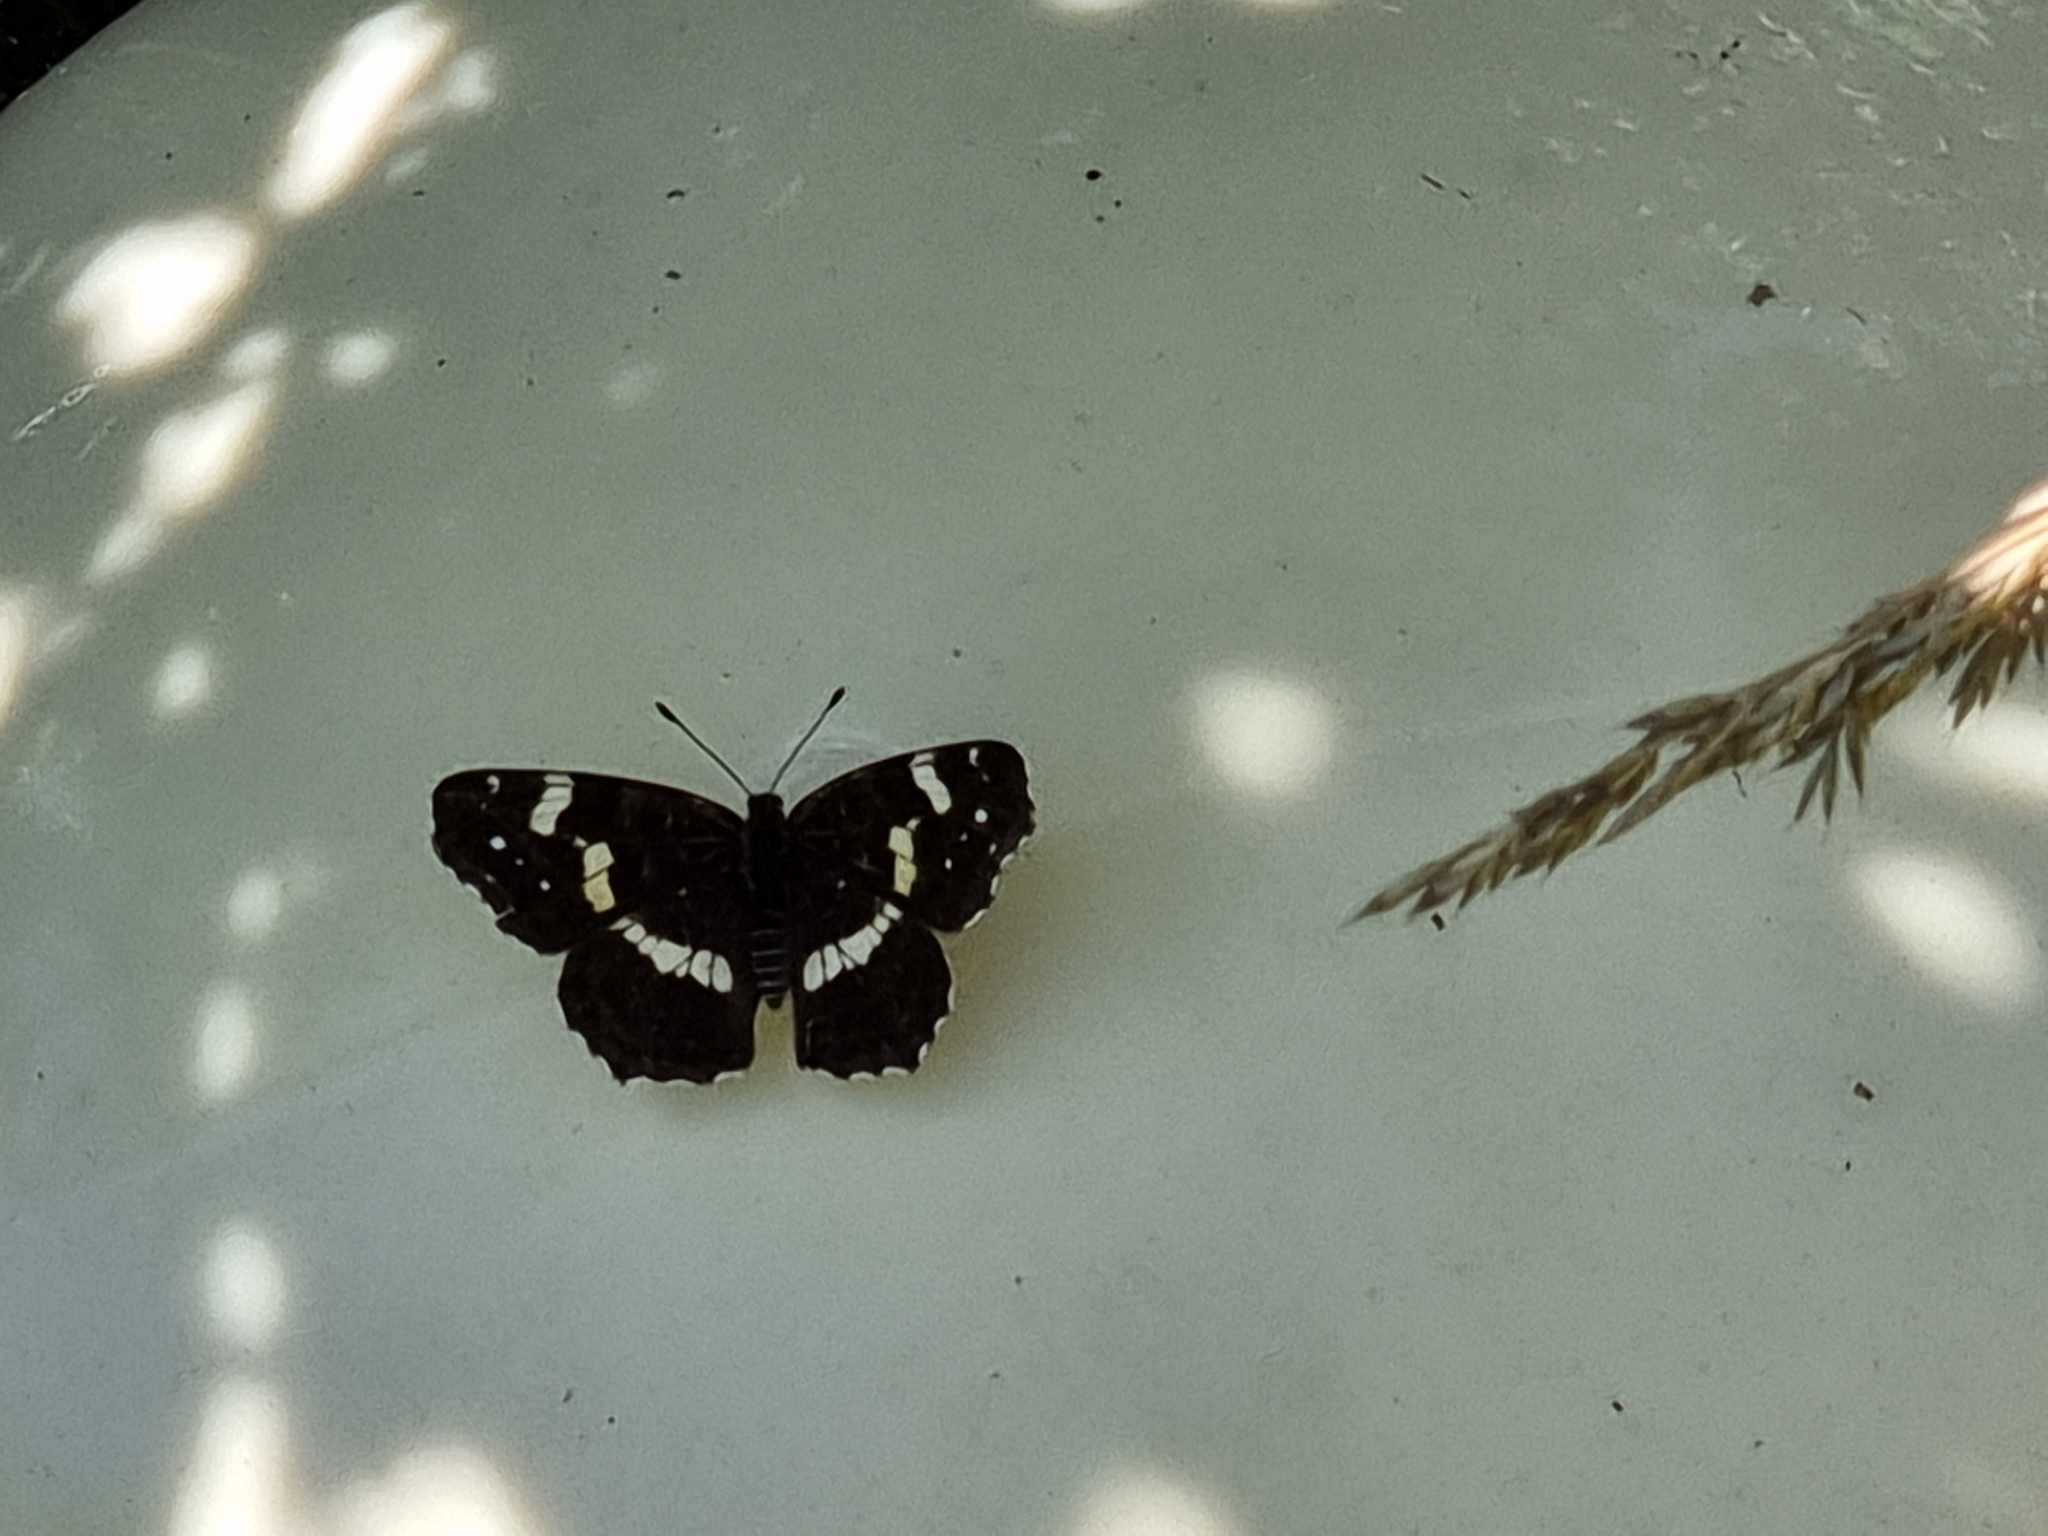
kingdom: Animalia
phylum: Arthropoda
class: Insecta
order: Lepidoptera
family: Nymphalidae
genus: Araschnia
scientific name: Araschnia levana
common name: Map butterfly
